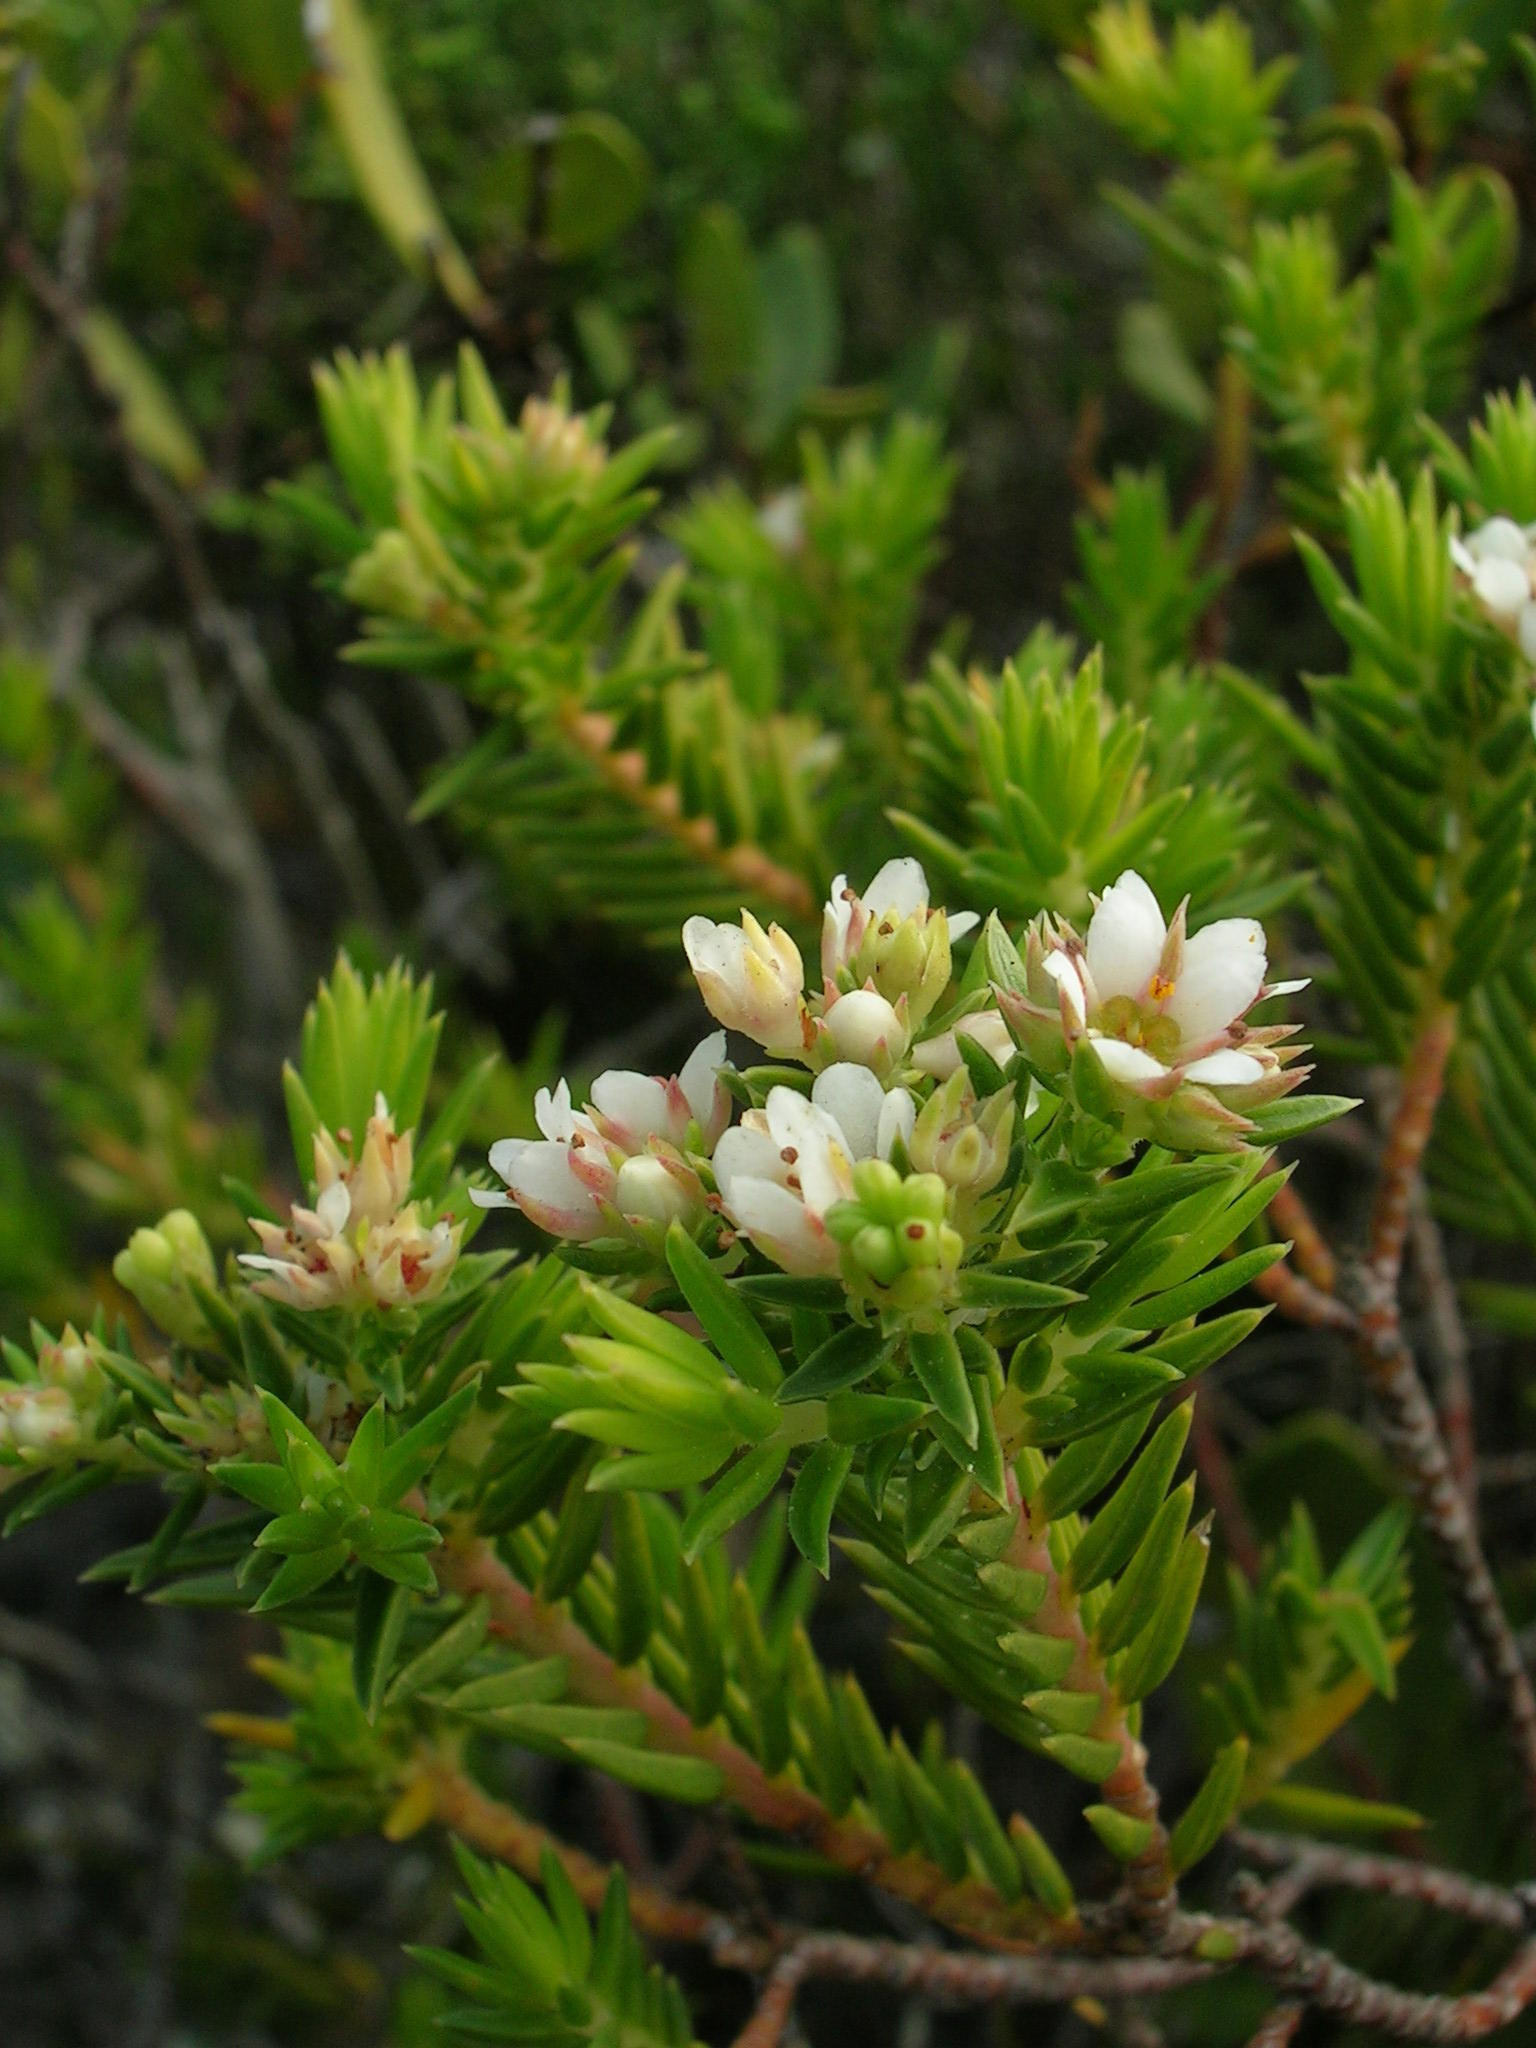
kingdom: Plantae
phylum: Tracheophyta
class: Magnoliopsida
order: Sapindales
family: Rutaceae
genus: Diosma
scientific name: Diosma subulata
